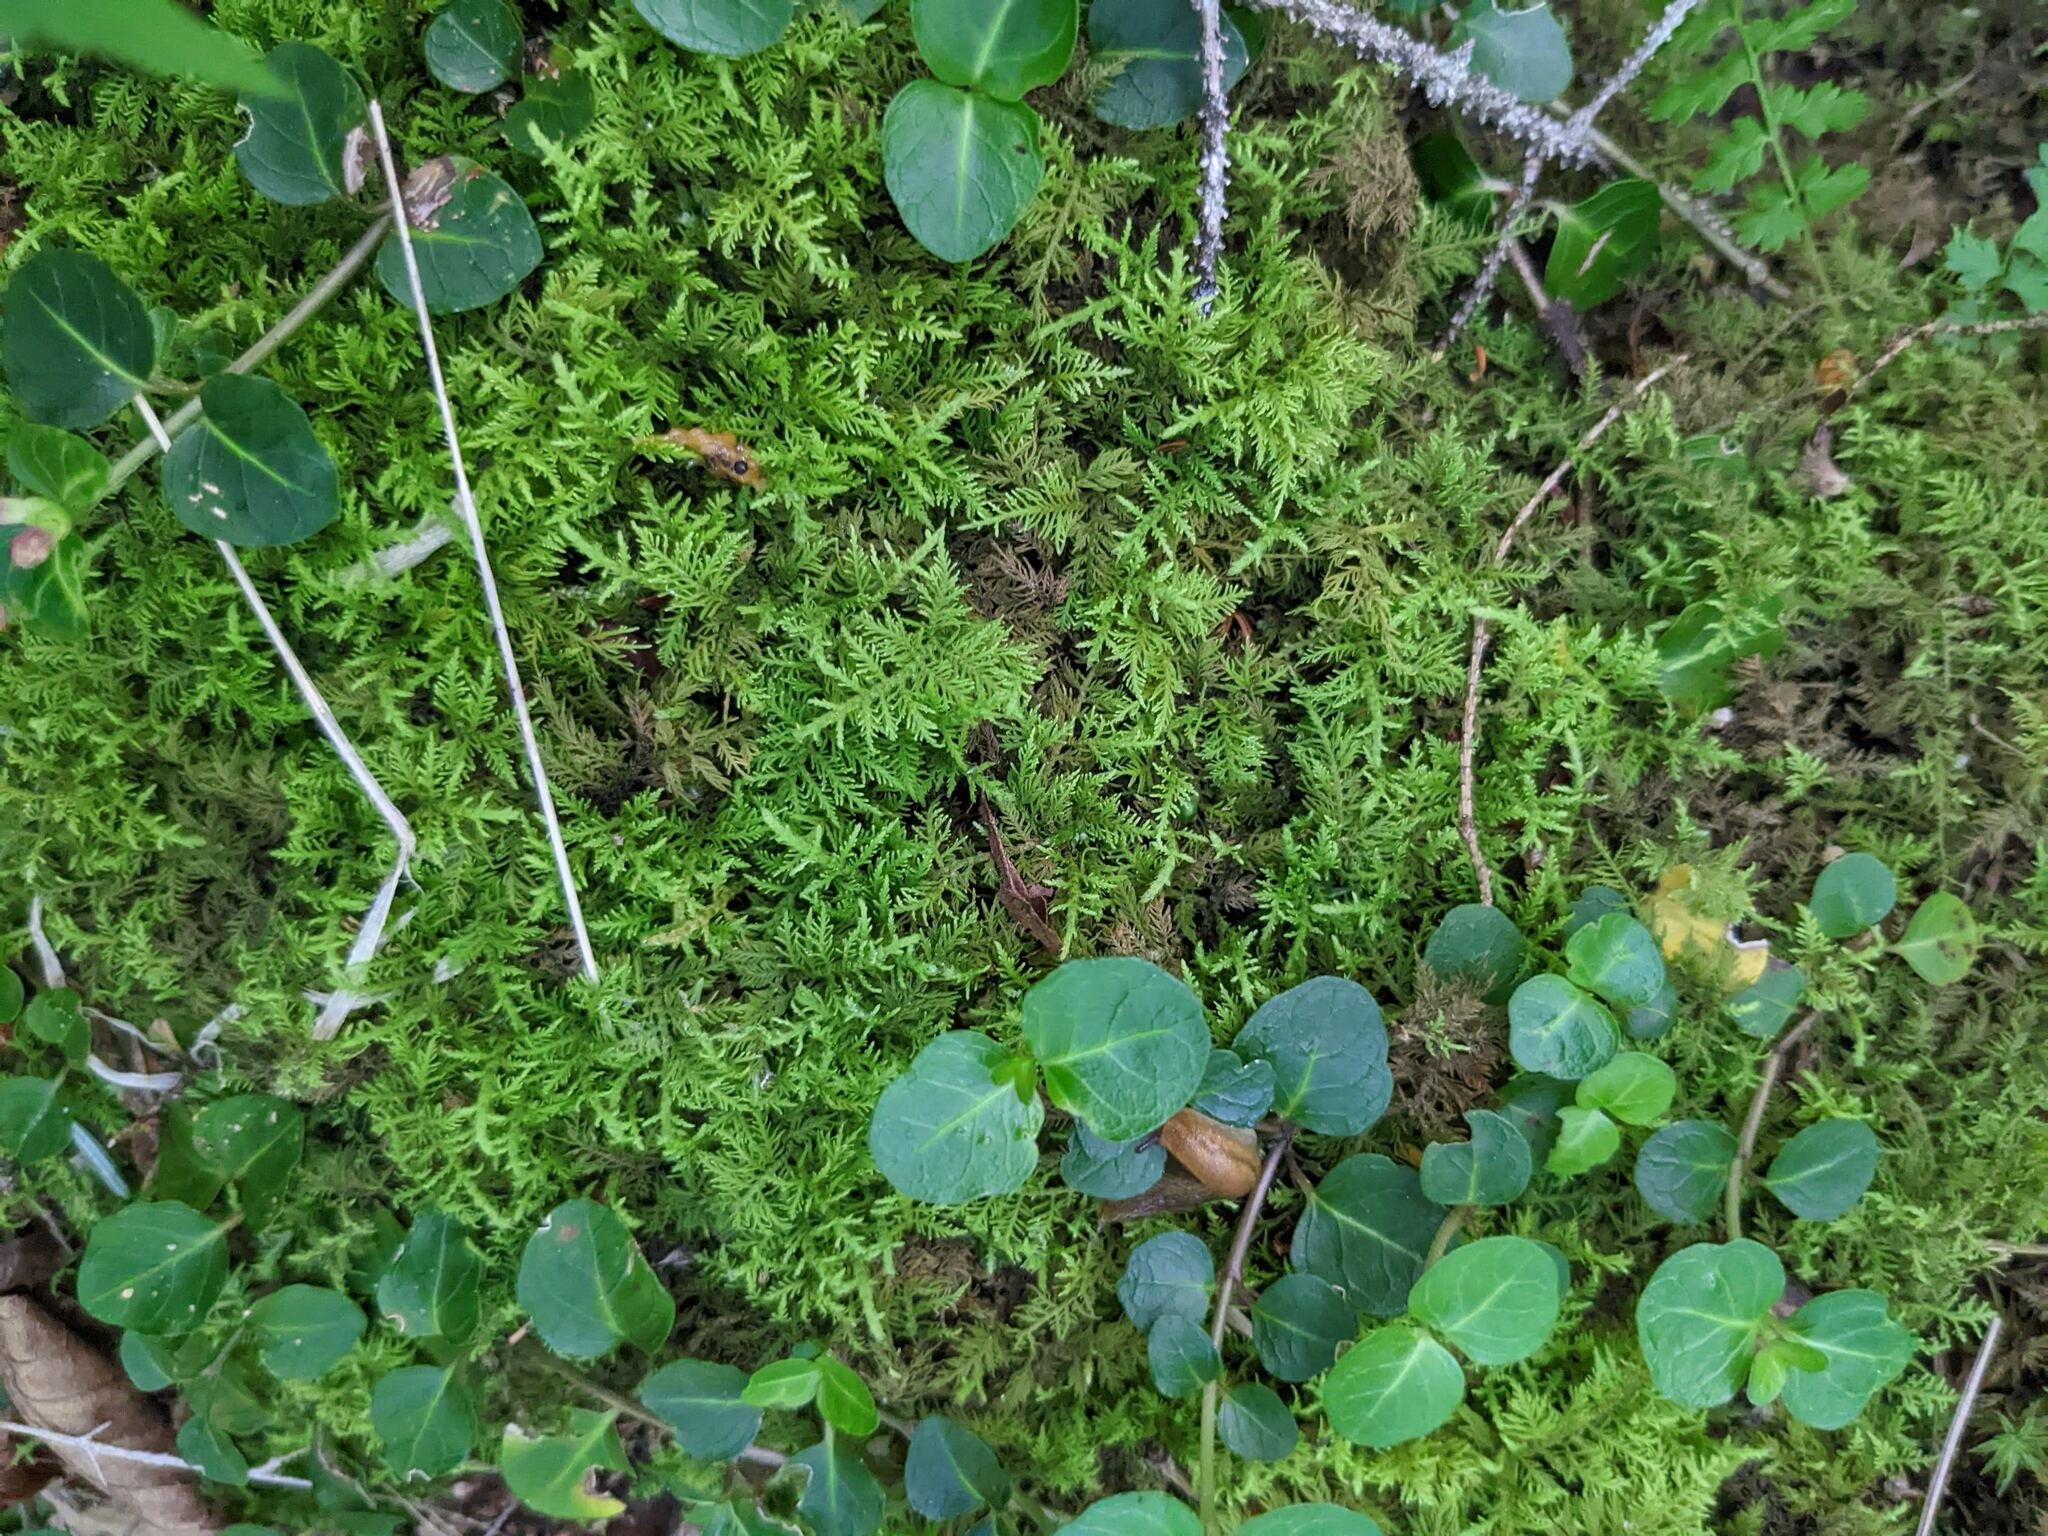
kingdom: Plantae
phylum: Tracheophyta
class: Magnoliopsida
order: Gentianales
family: Rubiaceae
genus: Mitchella
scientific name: Mitchella repens
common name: Partridge-berry
